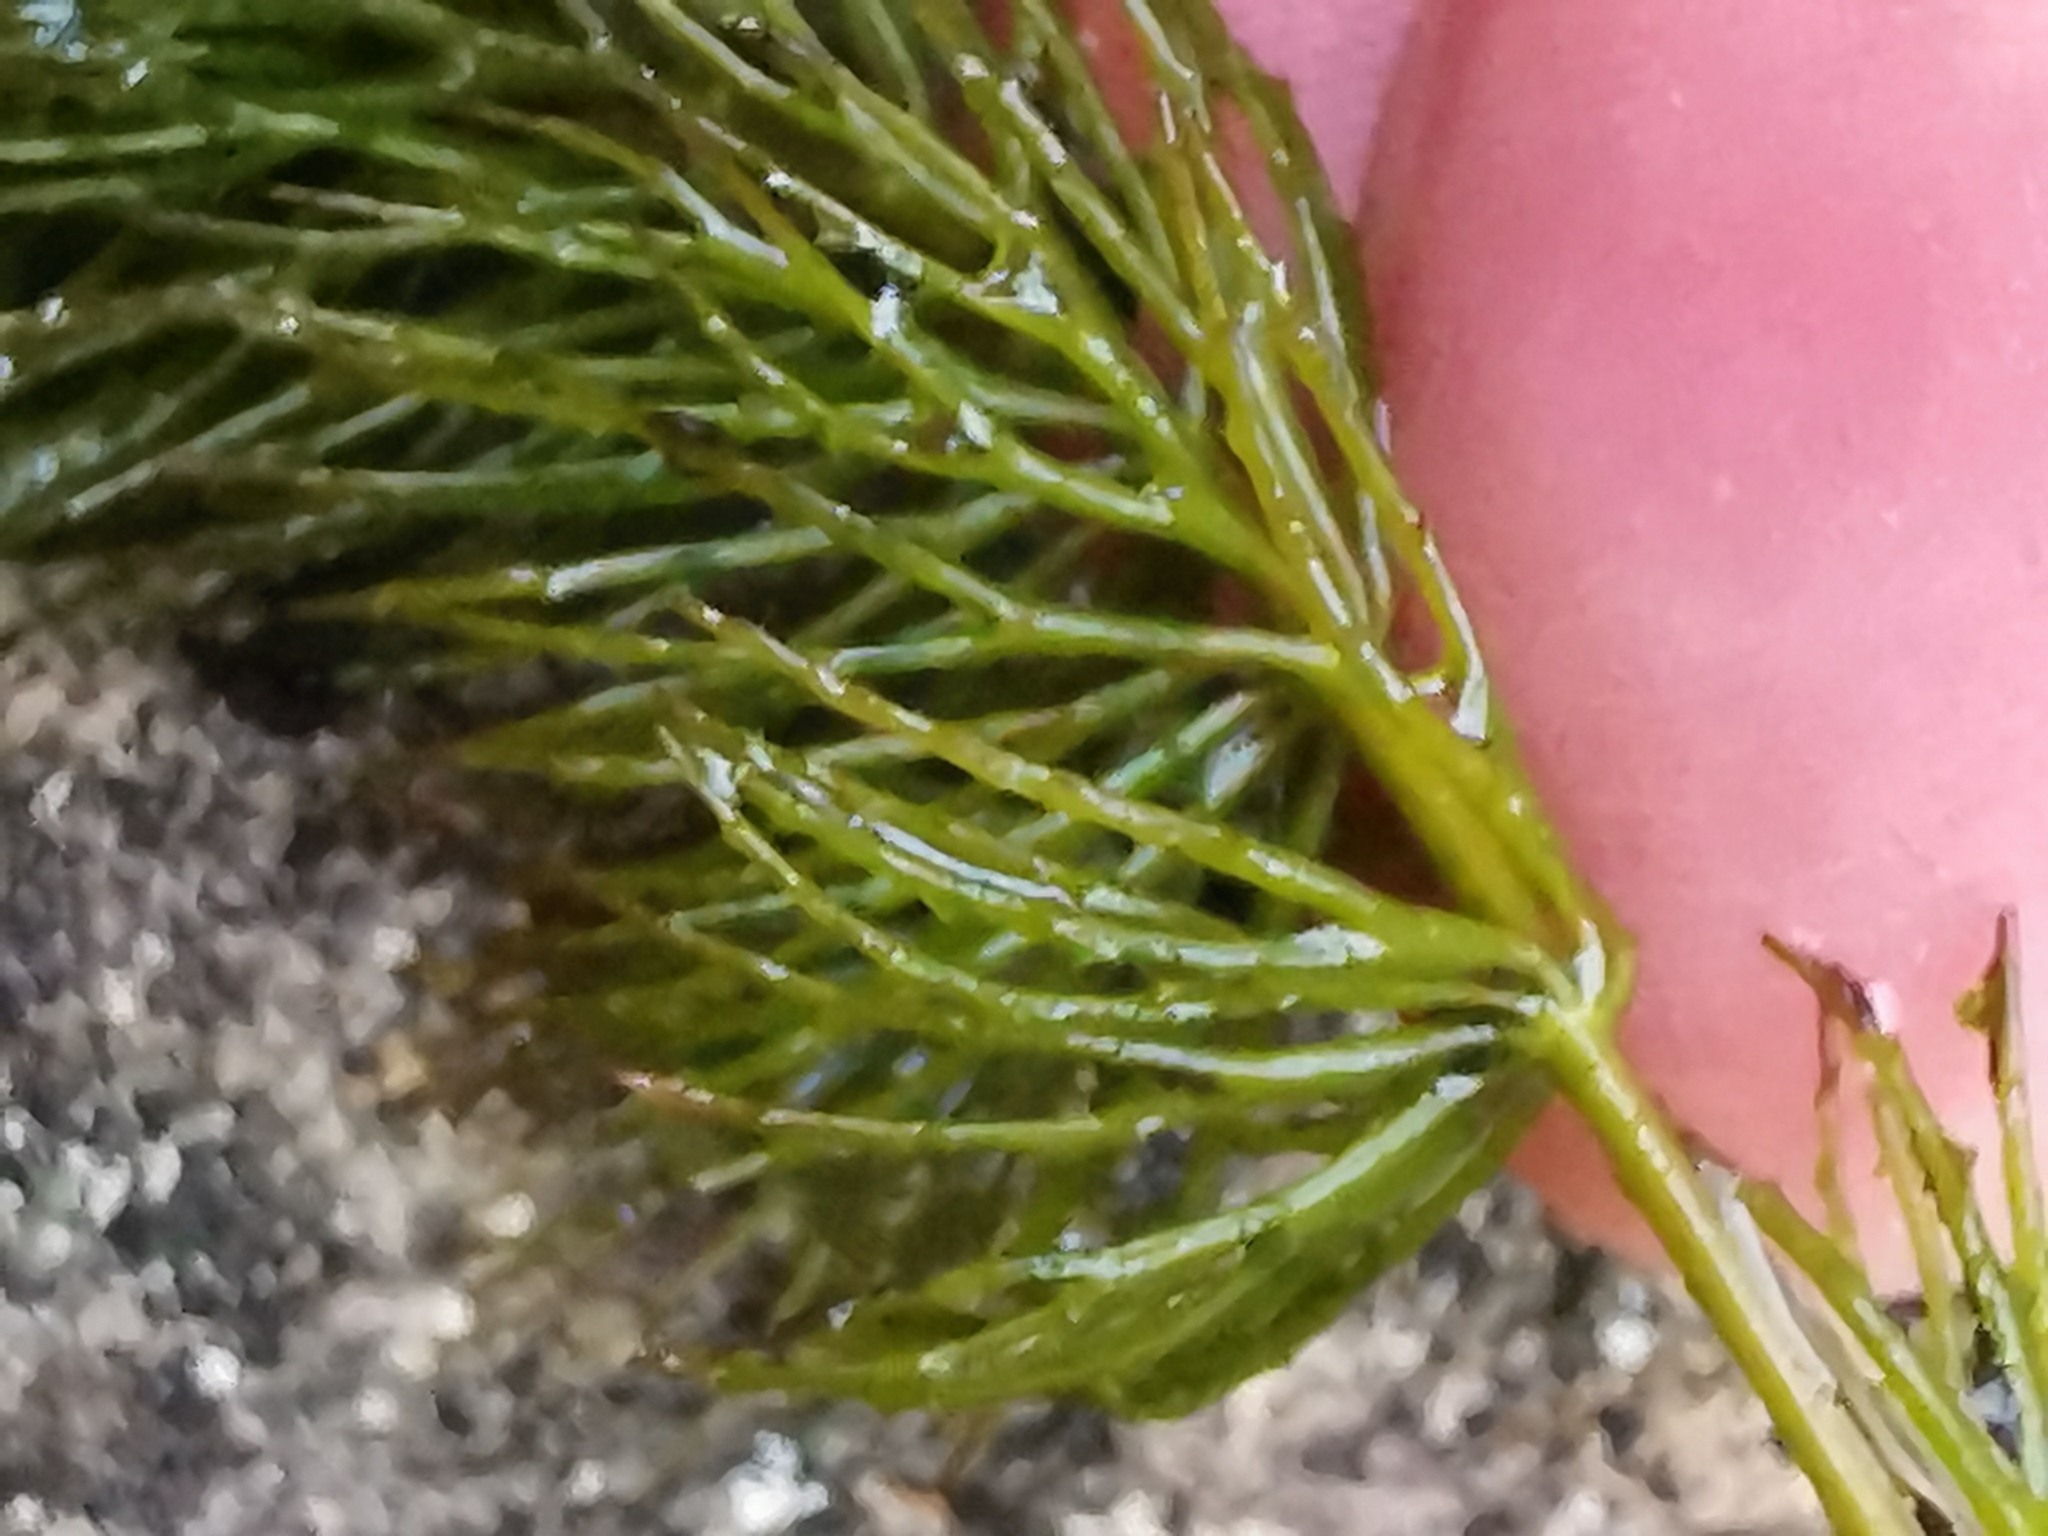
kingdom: Plantae
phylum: Tracheophyta
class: Magnoliopsida
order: Ceratophyllales
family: Ceratophyllaceae
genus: Ceratophyllum
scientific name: Ceratophyllum demersum
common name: Rigid hornwort
